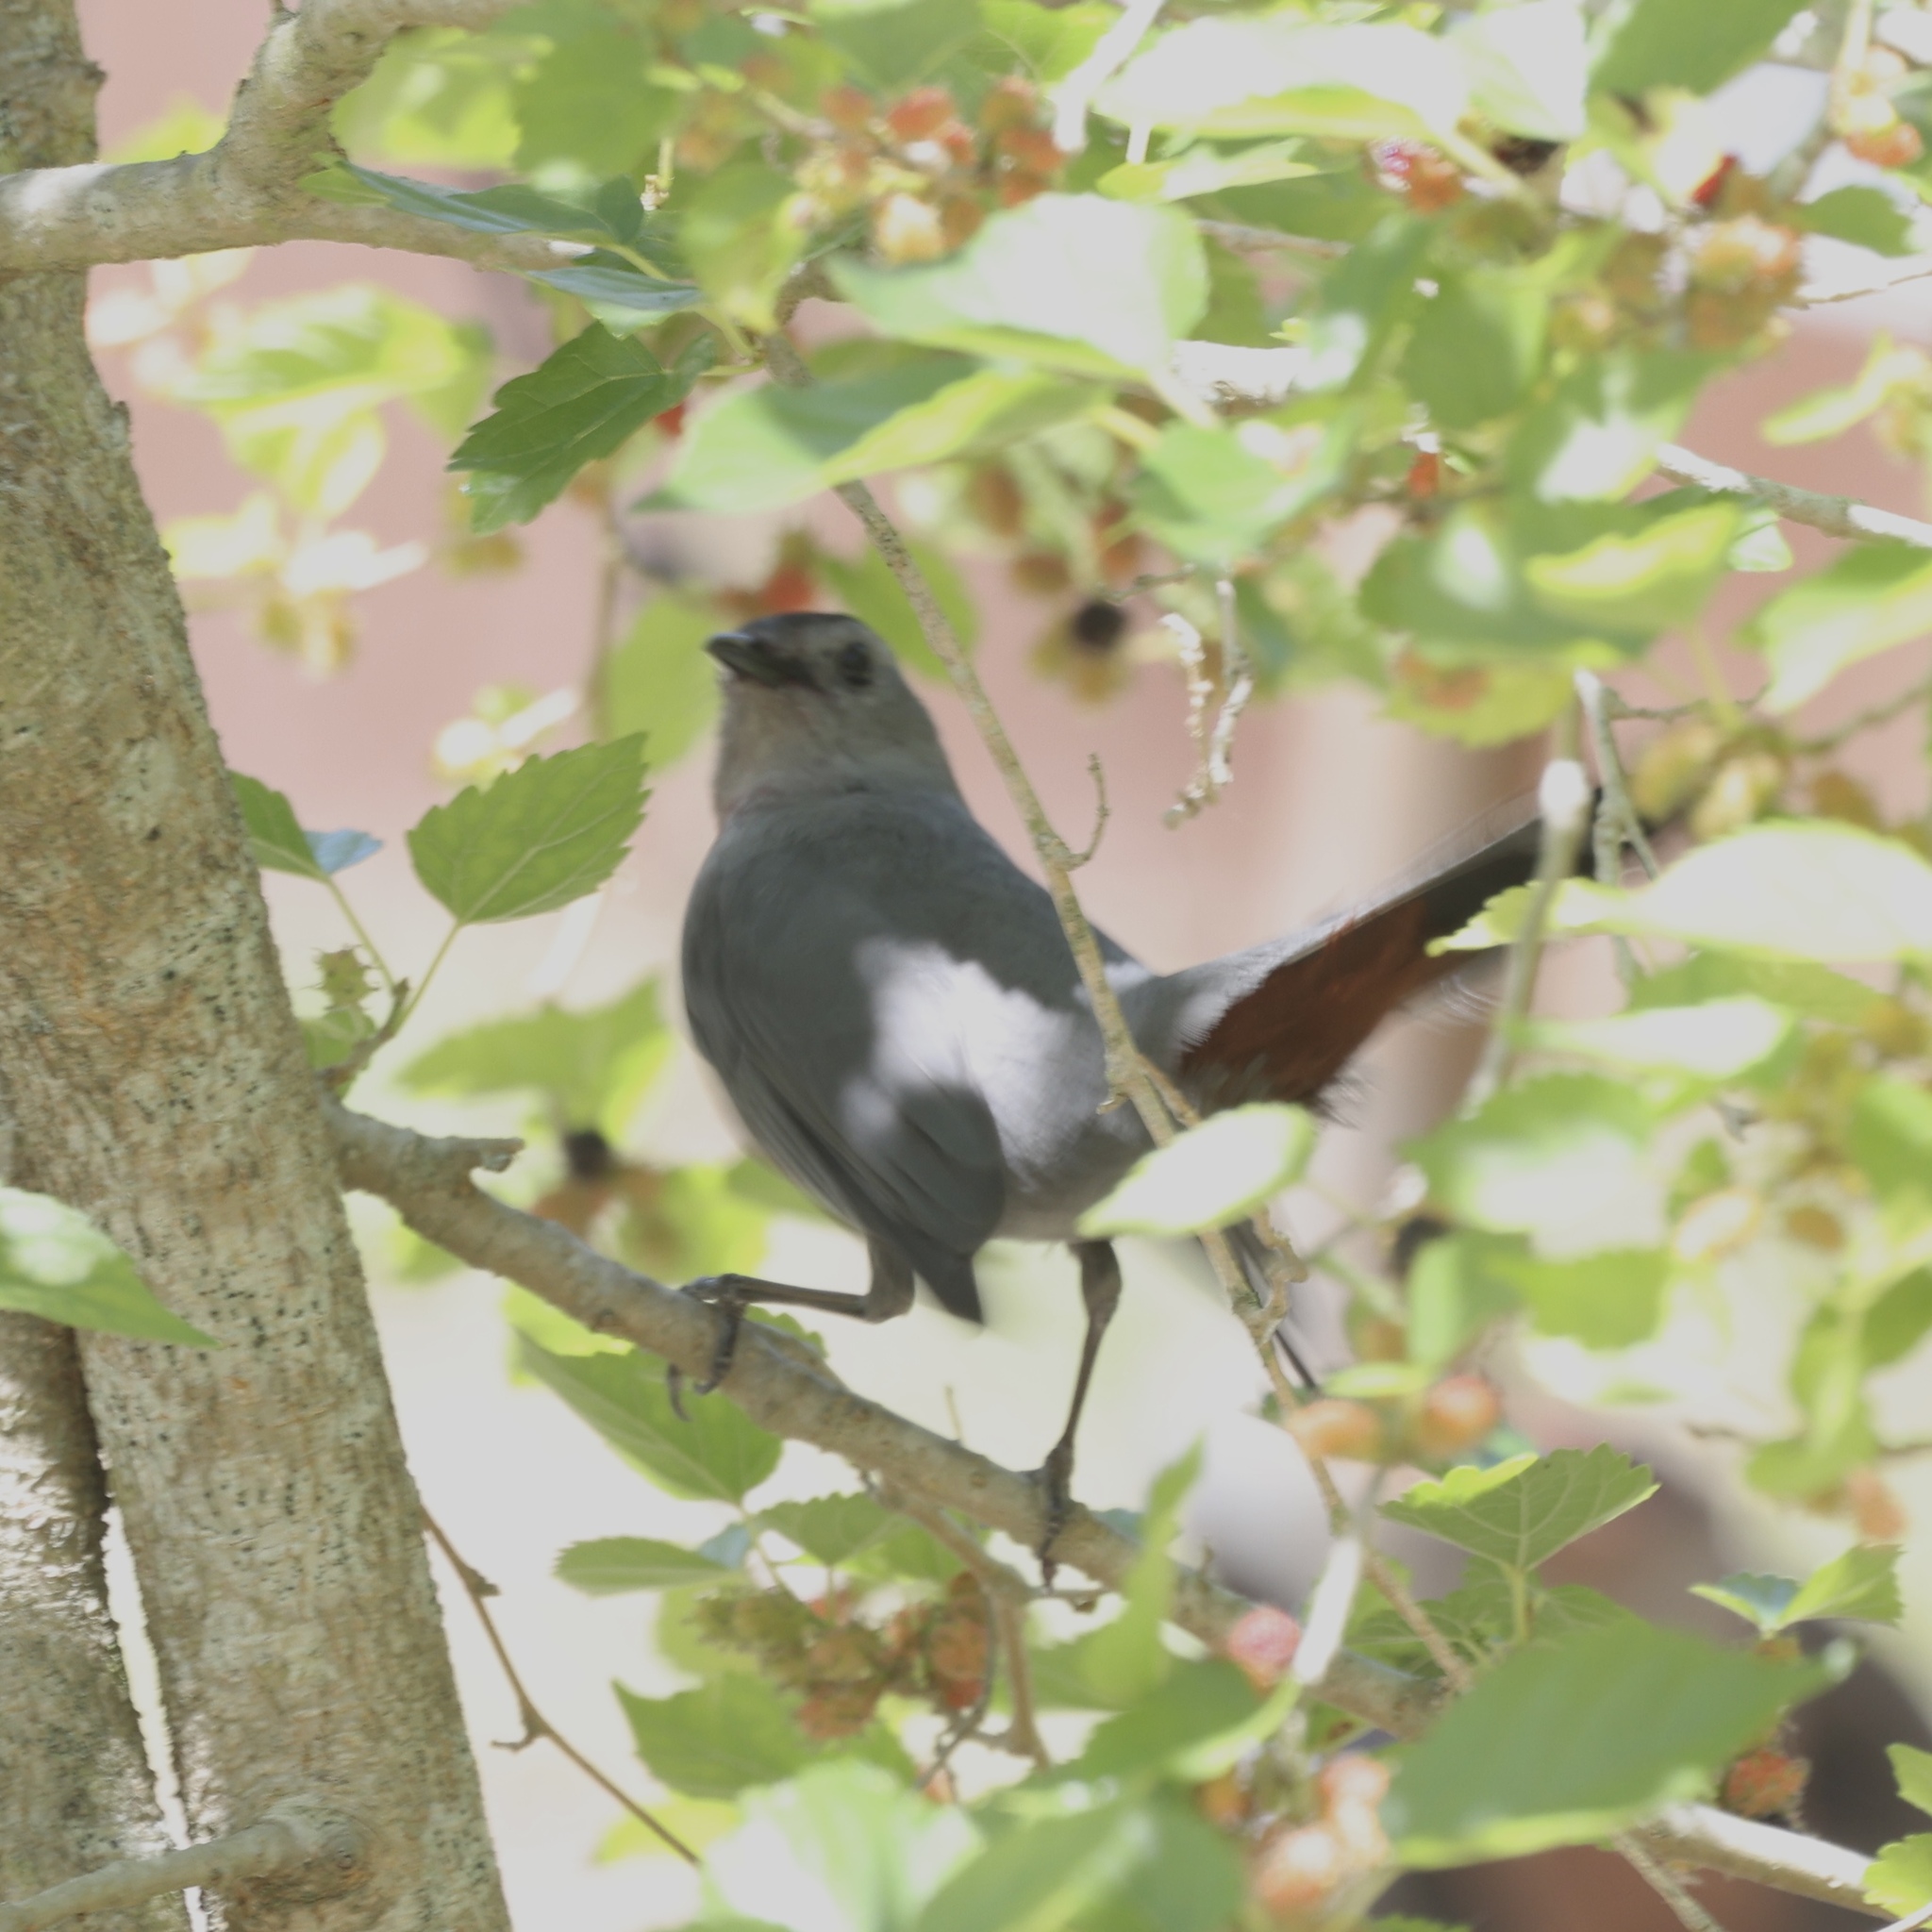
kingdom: Animalia
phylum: Chordata
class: Aves
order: Passeriformes
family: Mimidae
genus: Dumetella
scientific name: Dumetella carolinensis
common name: Gray catbird
